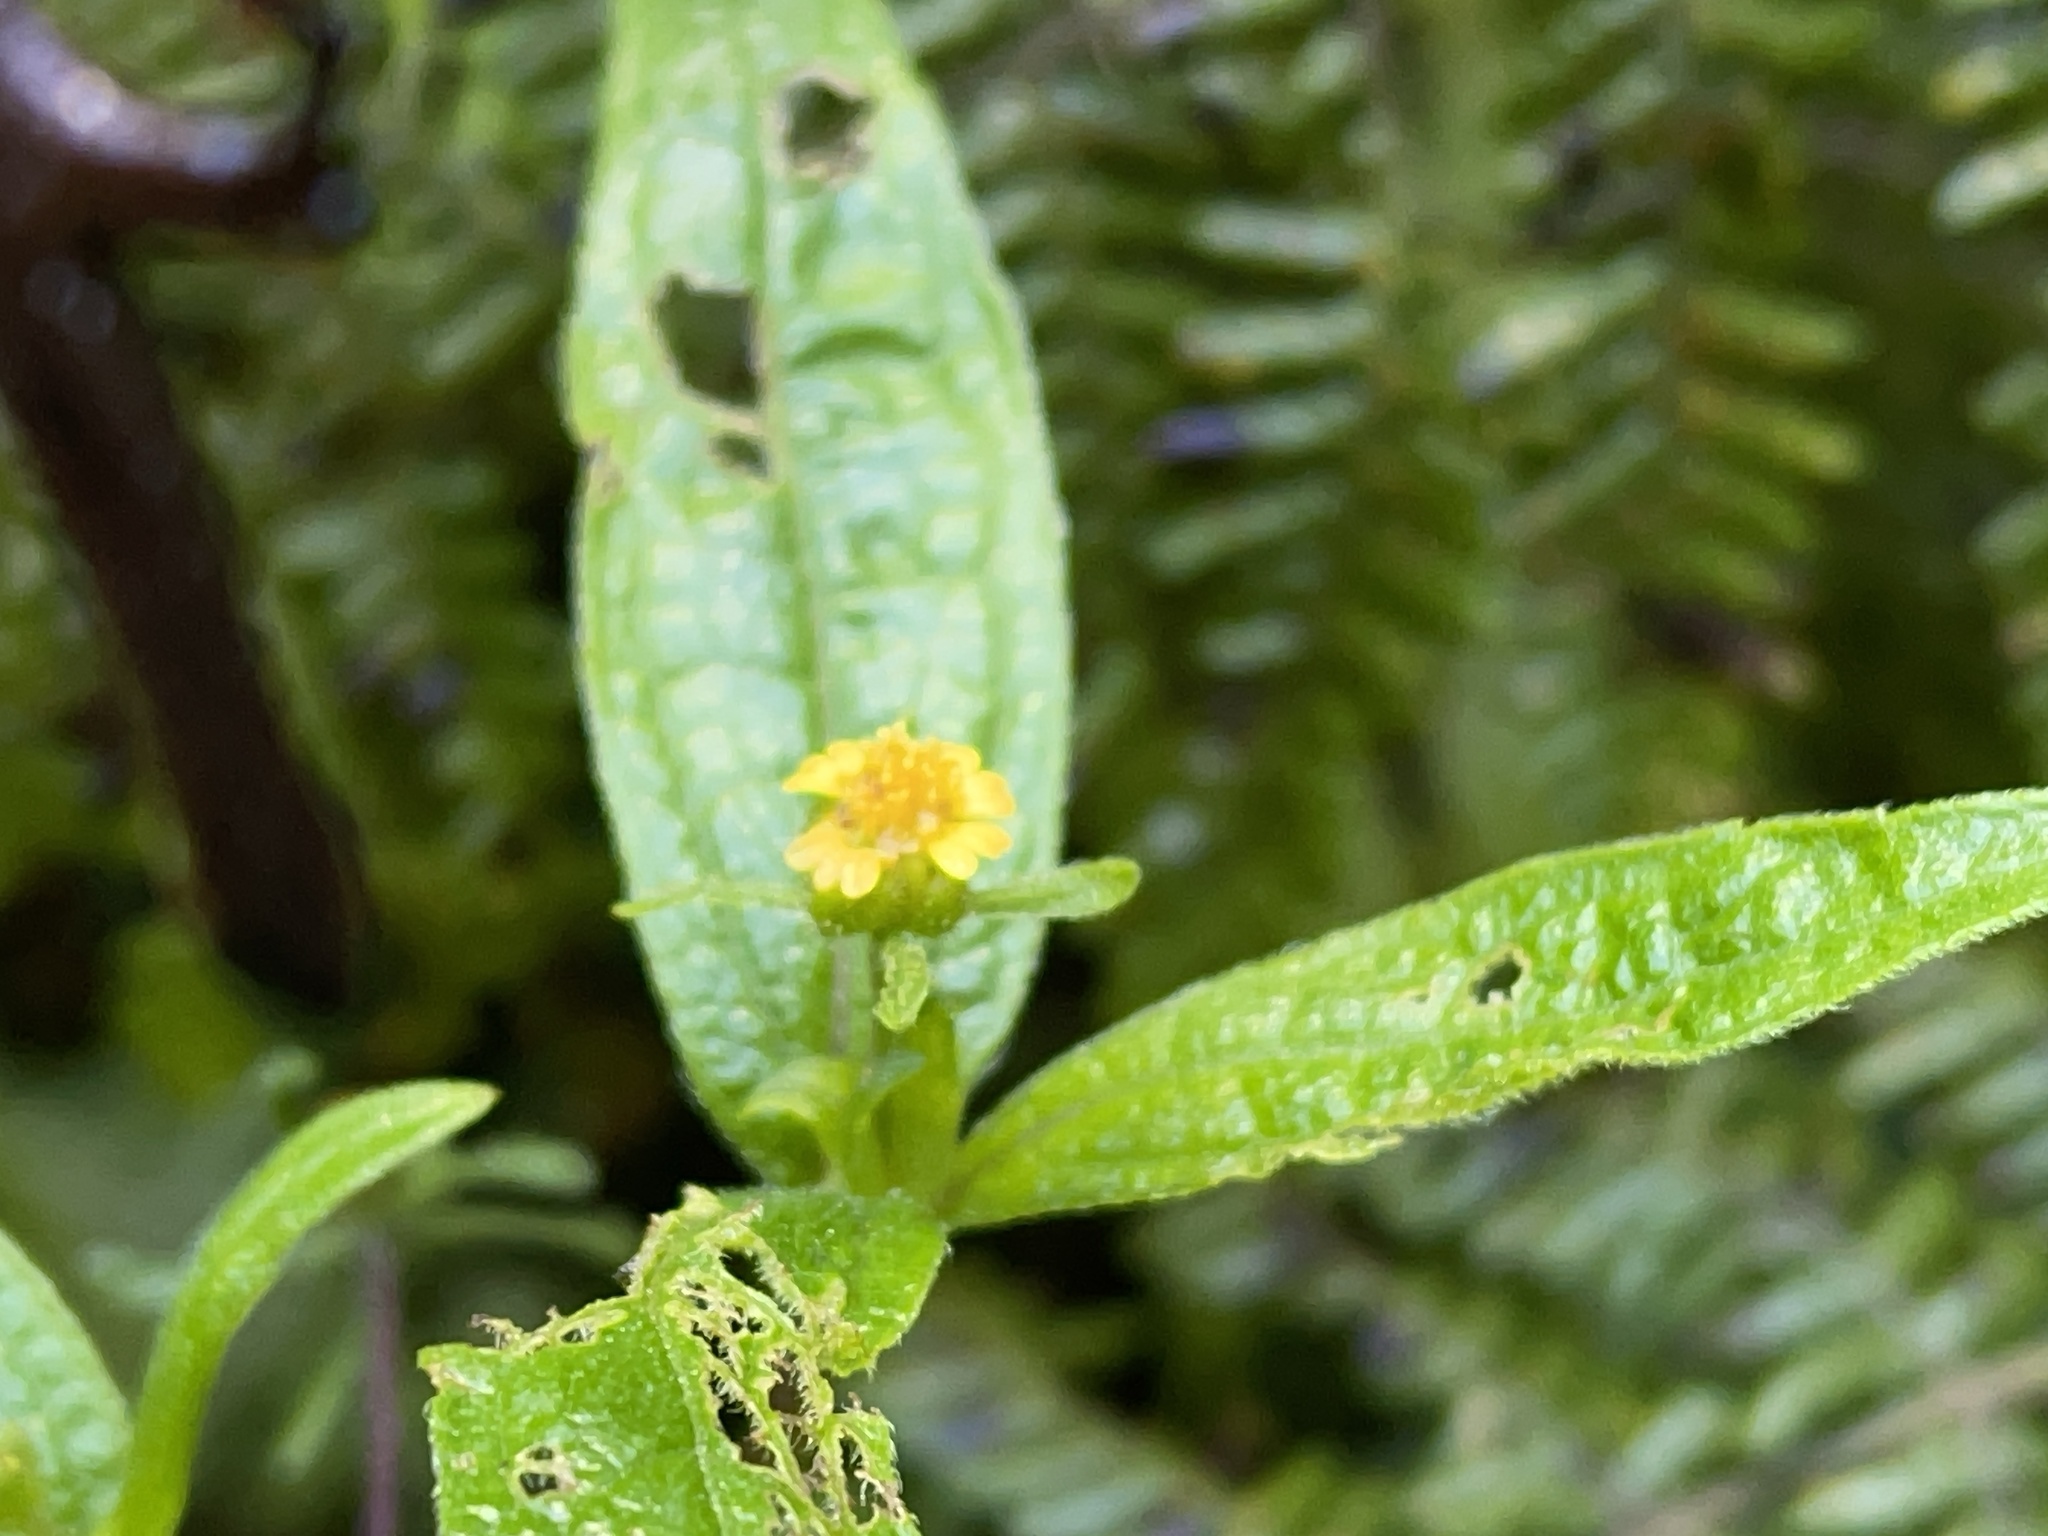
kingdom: Plantae
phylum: Tracheophyta
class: Magnoliopsida
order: Asterales
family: Asteraceae
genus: Sigesbeckia
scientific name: Sigesbeckia orientalis
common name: Eastern st paul's-wort
